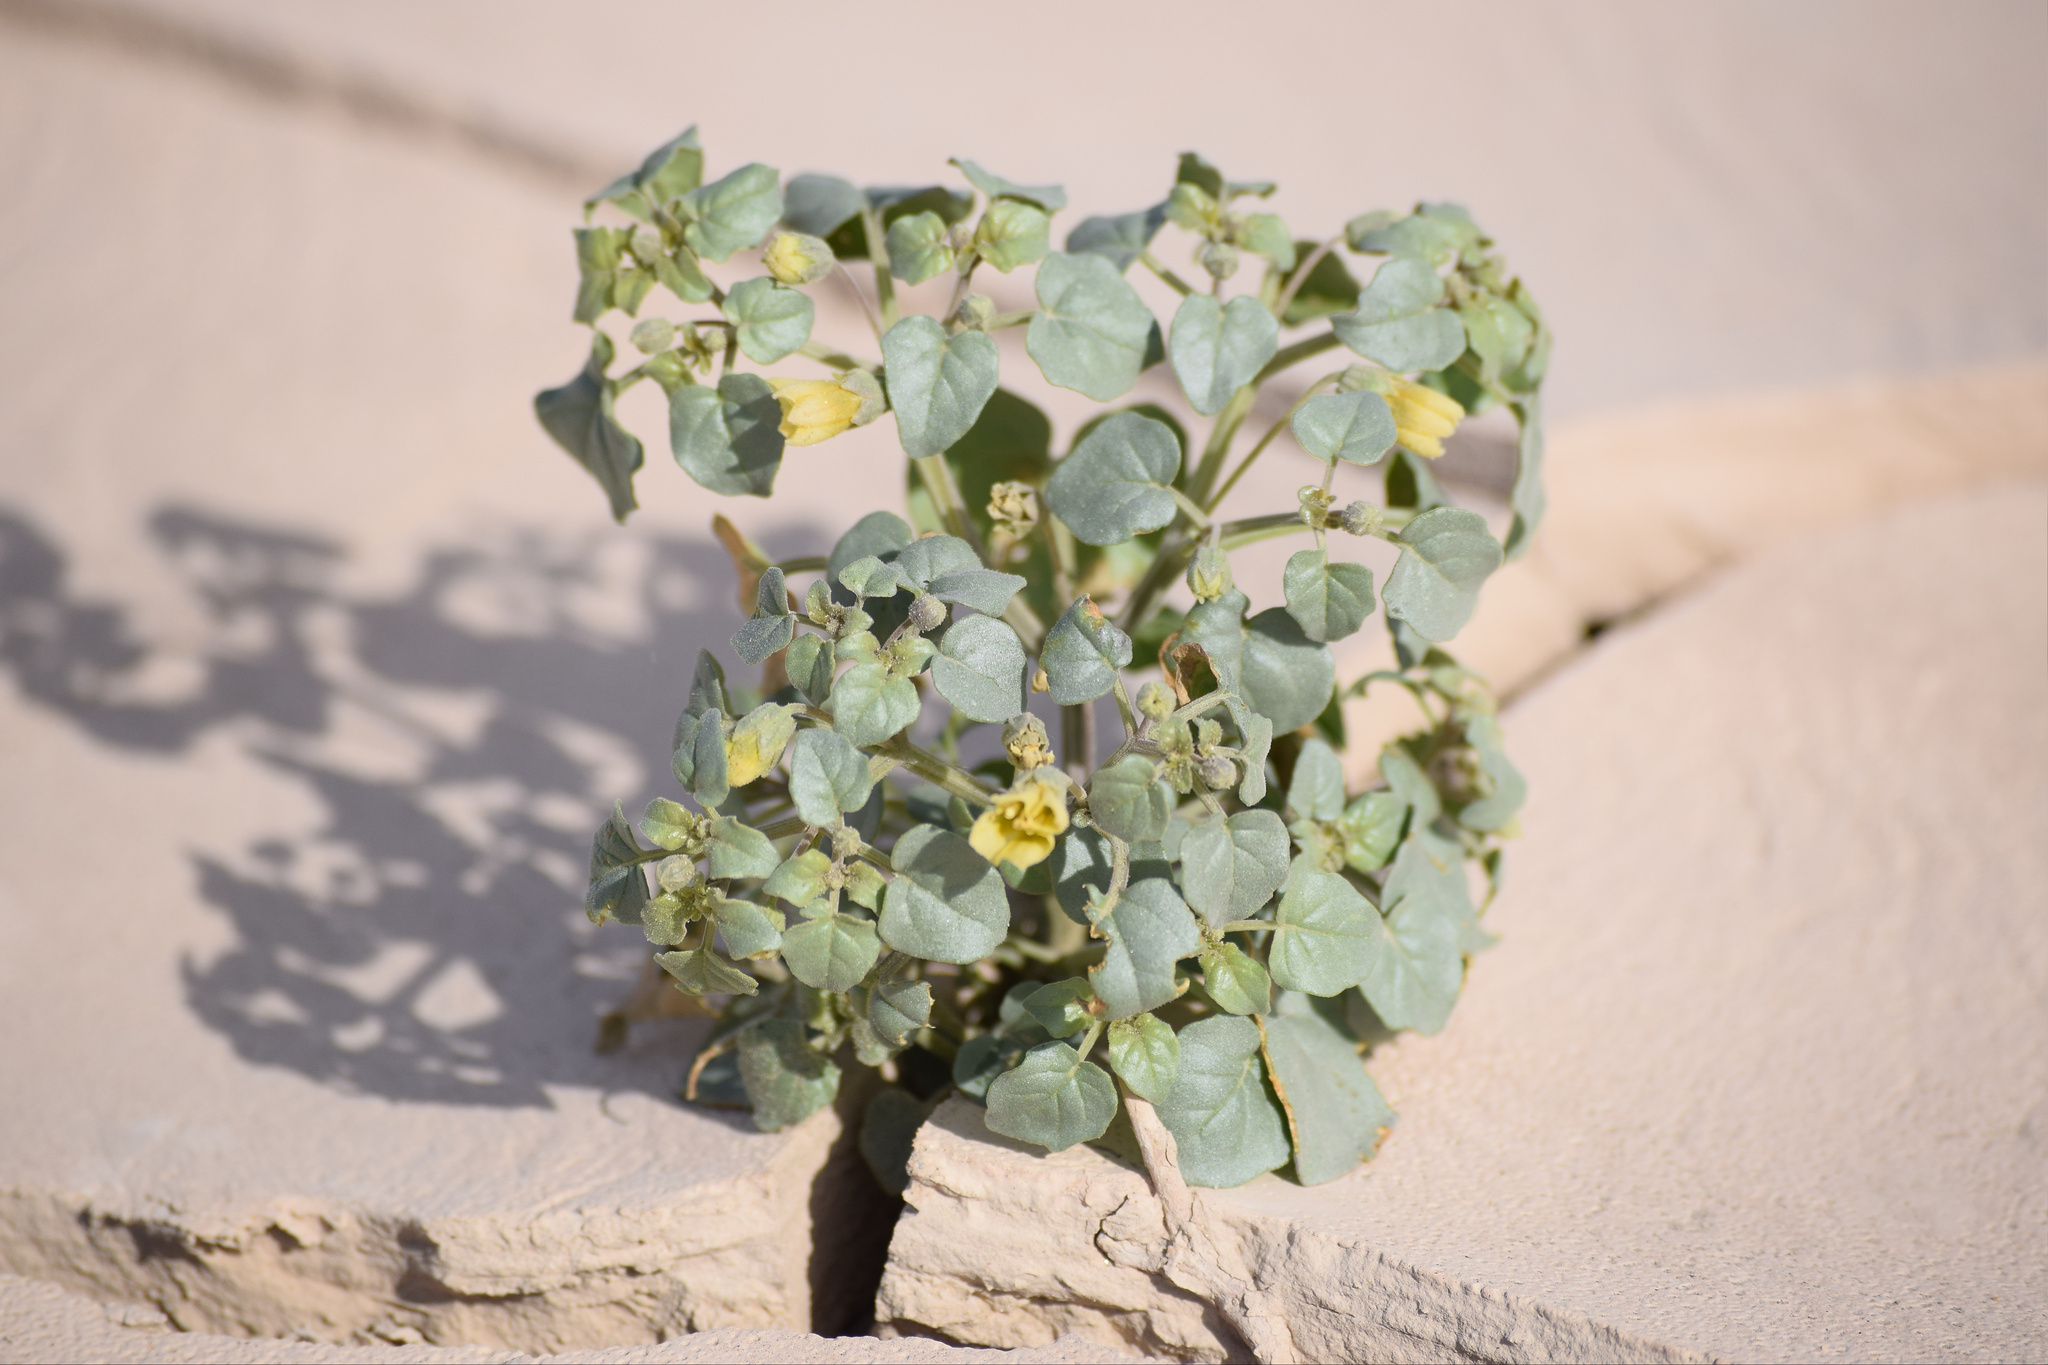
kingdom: Plantae
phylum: Tracheophyta
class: Magnoliopsida
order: Solanales
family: Solanaceae
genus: Physalis
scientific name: Physalis crassifolia
